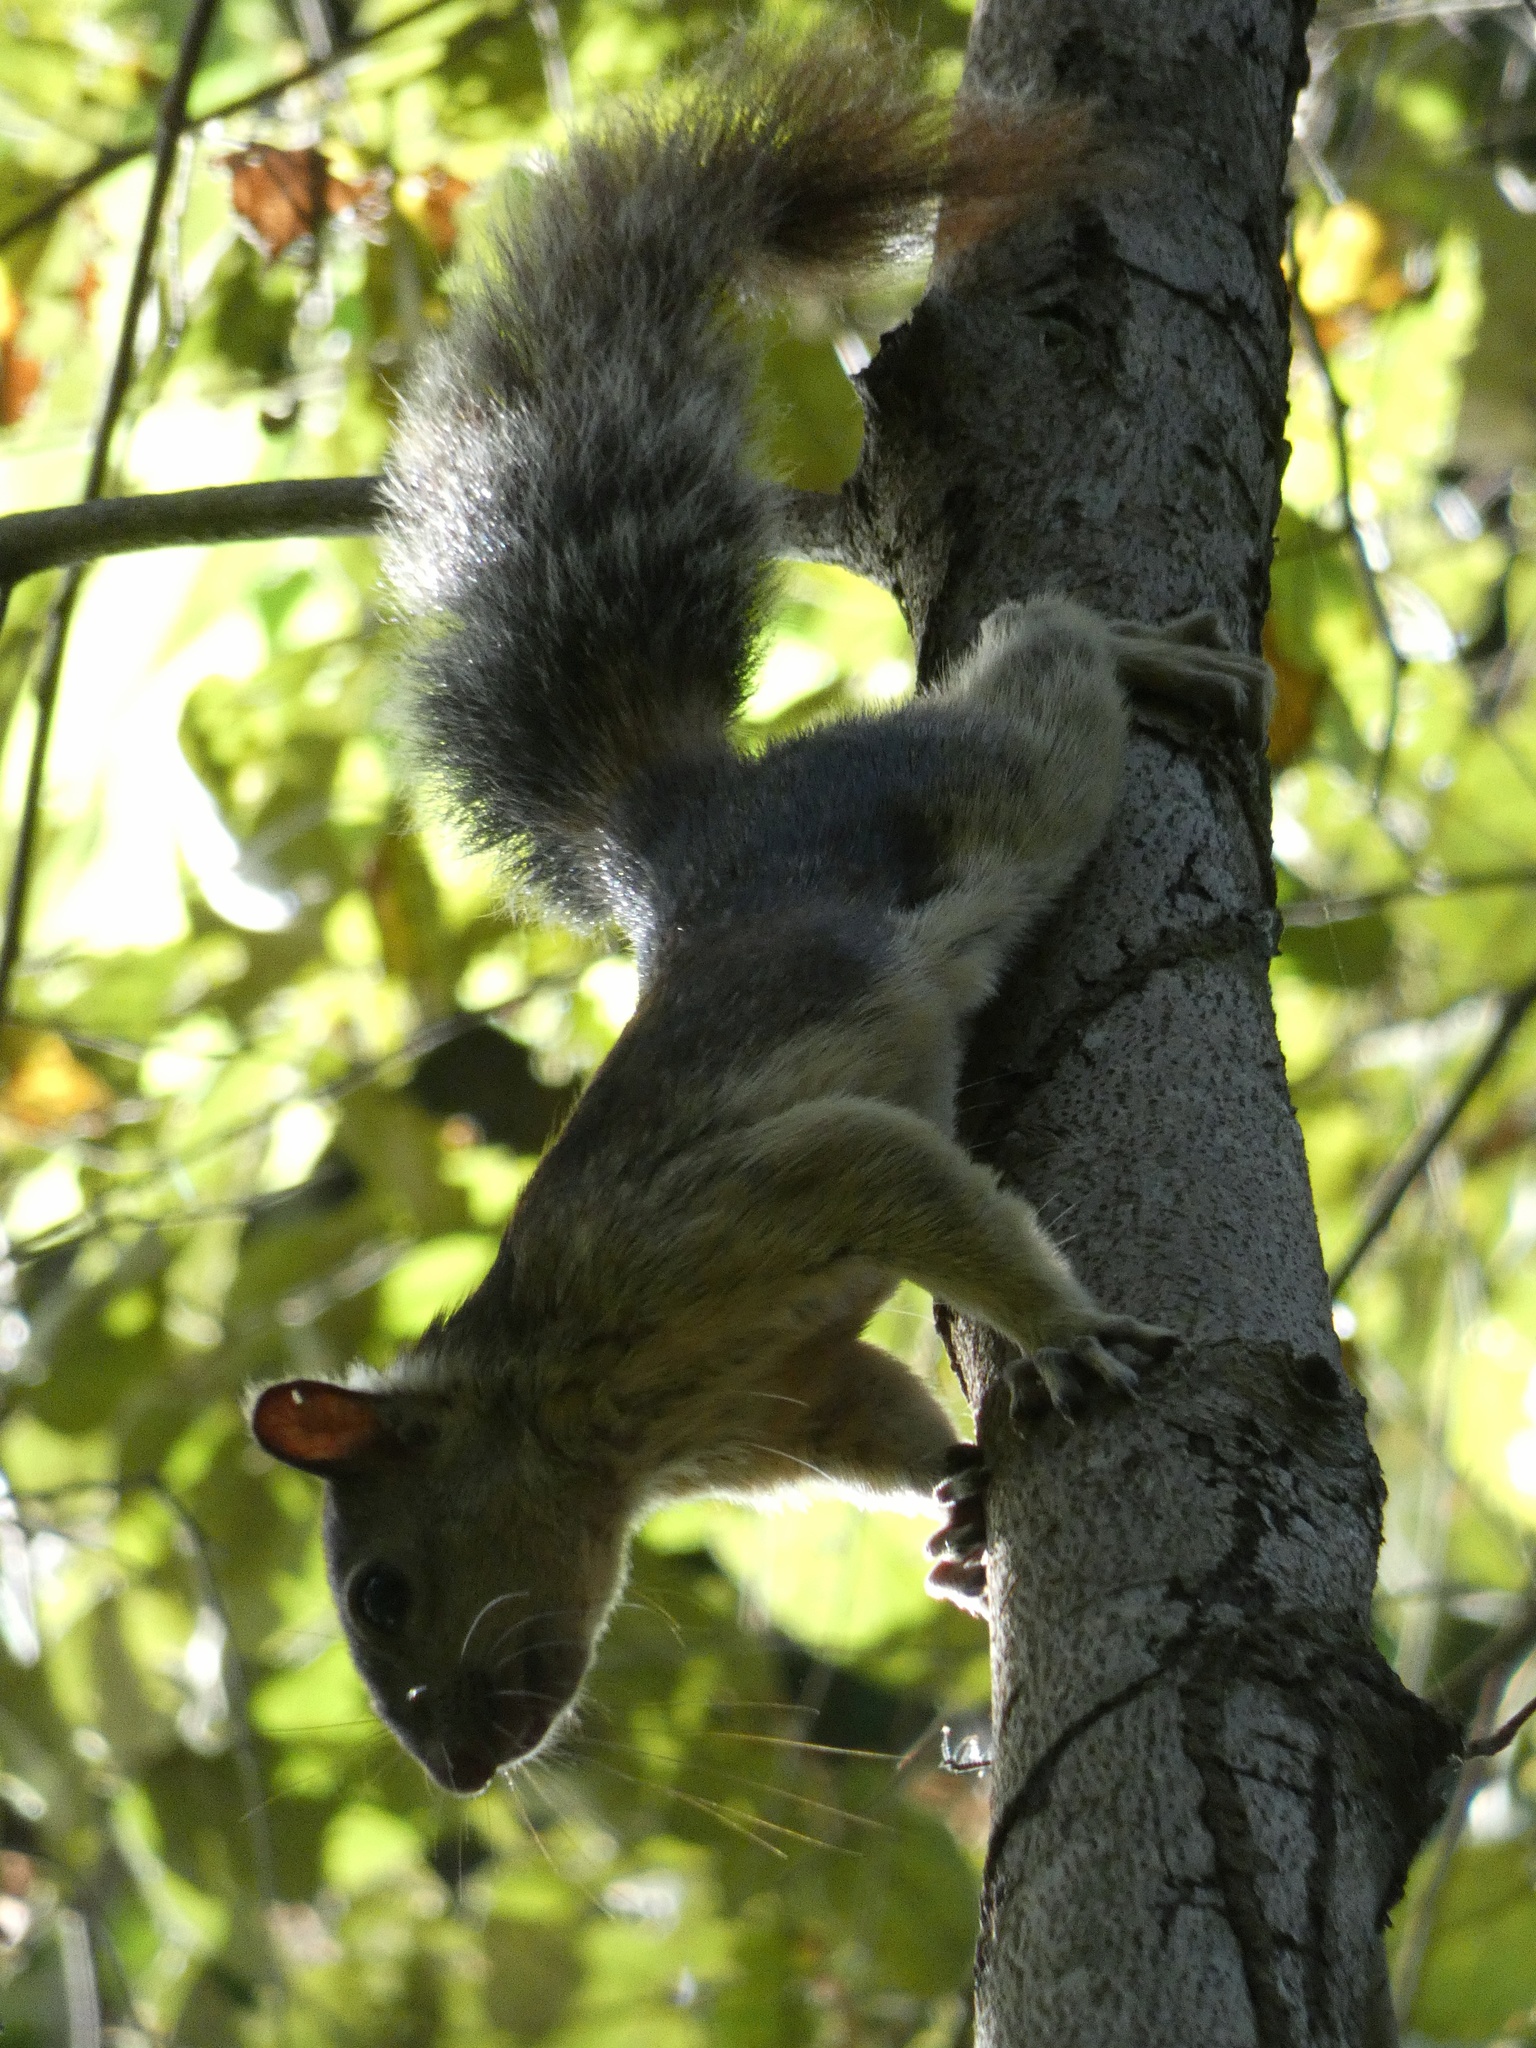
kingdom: Animalia
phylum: Chordata
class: Mammalia
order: Rodentia
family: Sciuridae
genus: Sciurus
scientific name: Sciurus variegatoides
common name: Variegated squirrel
